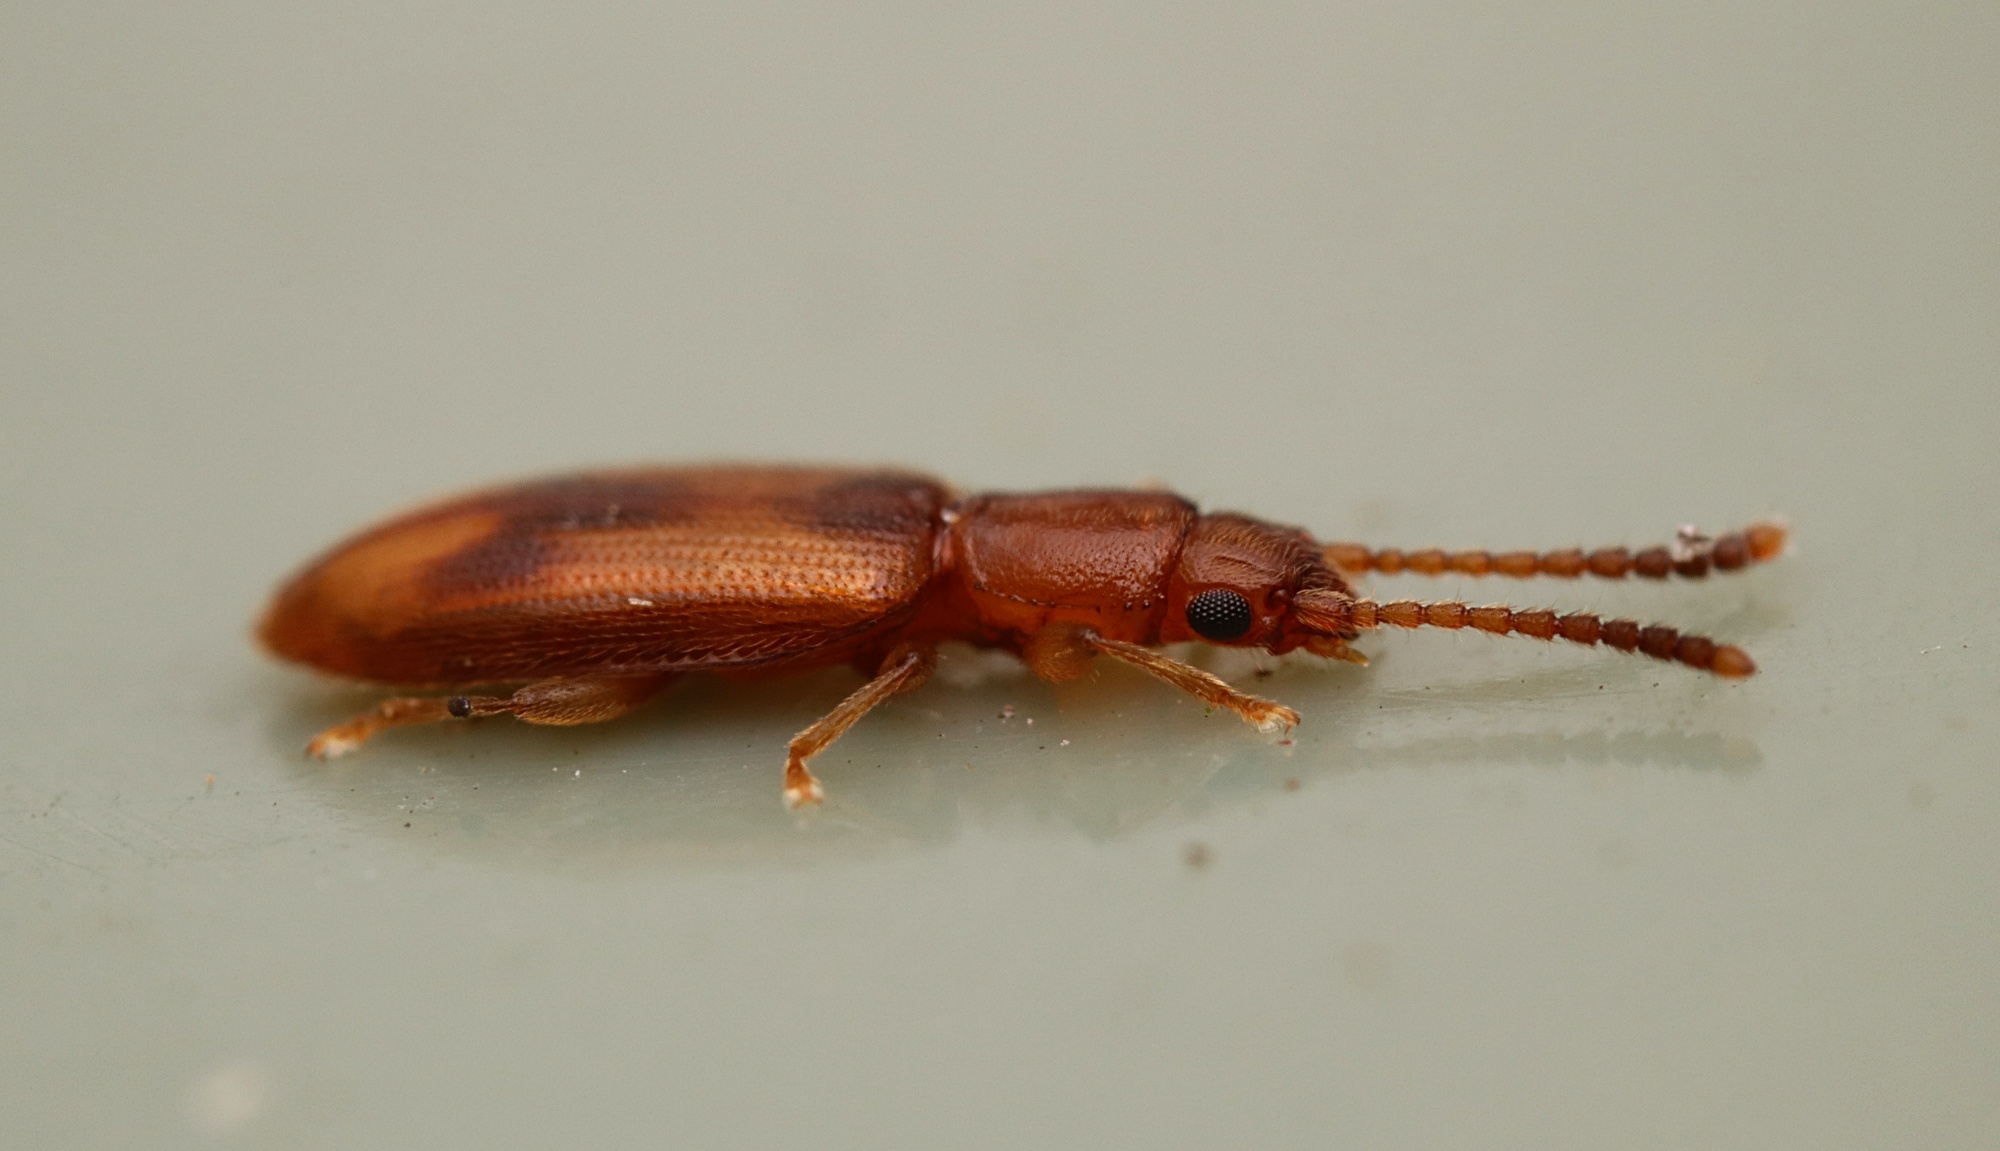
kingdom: Animalia
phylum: Arthropoda
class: Insecta
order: Coleoptera
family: Silvanidae
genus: Cryptamorpha
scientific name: Cryptamorpha desjardinsi
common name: Cryptamorpha
